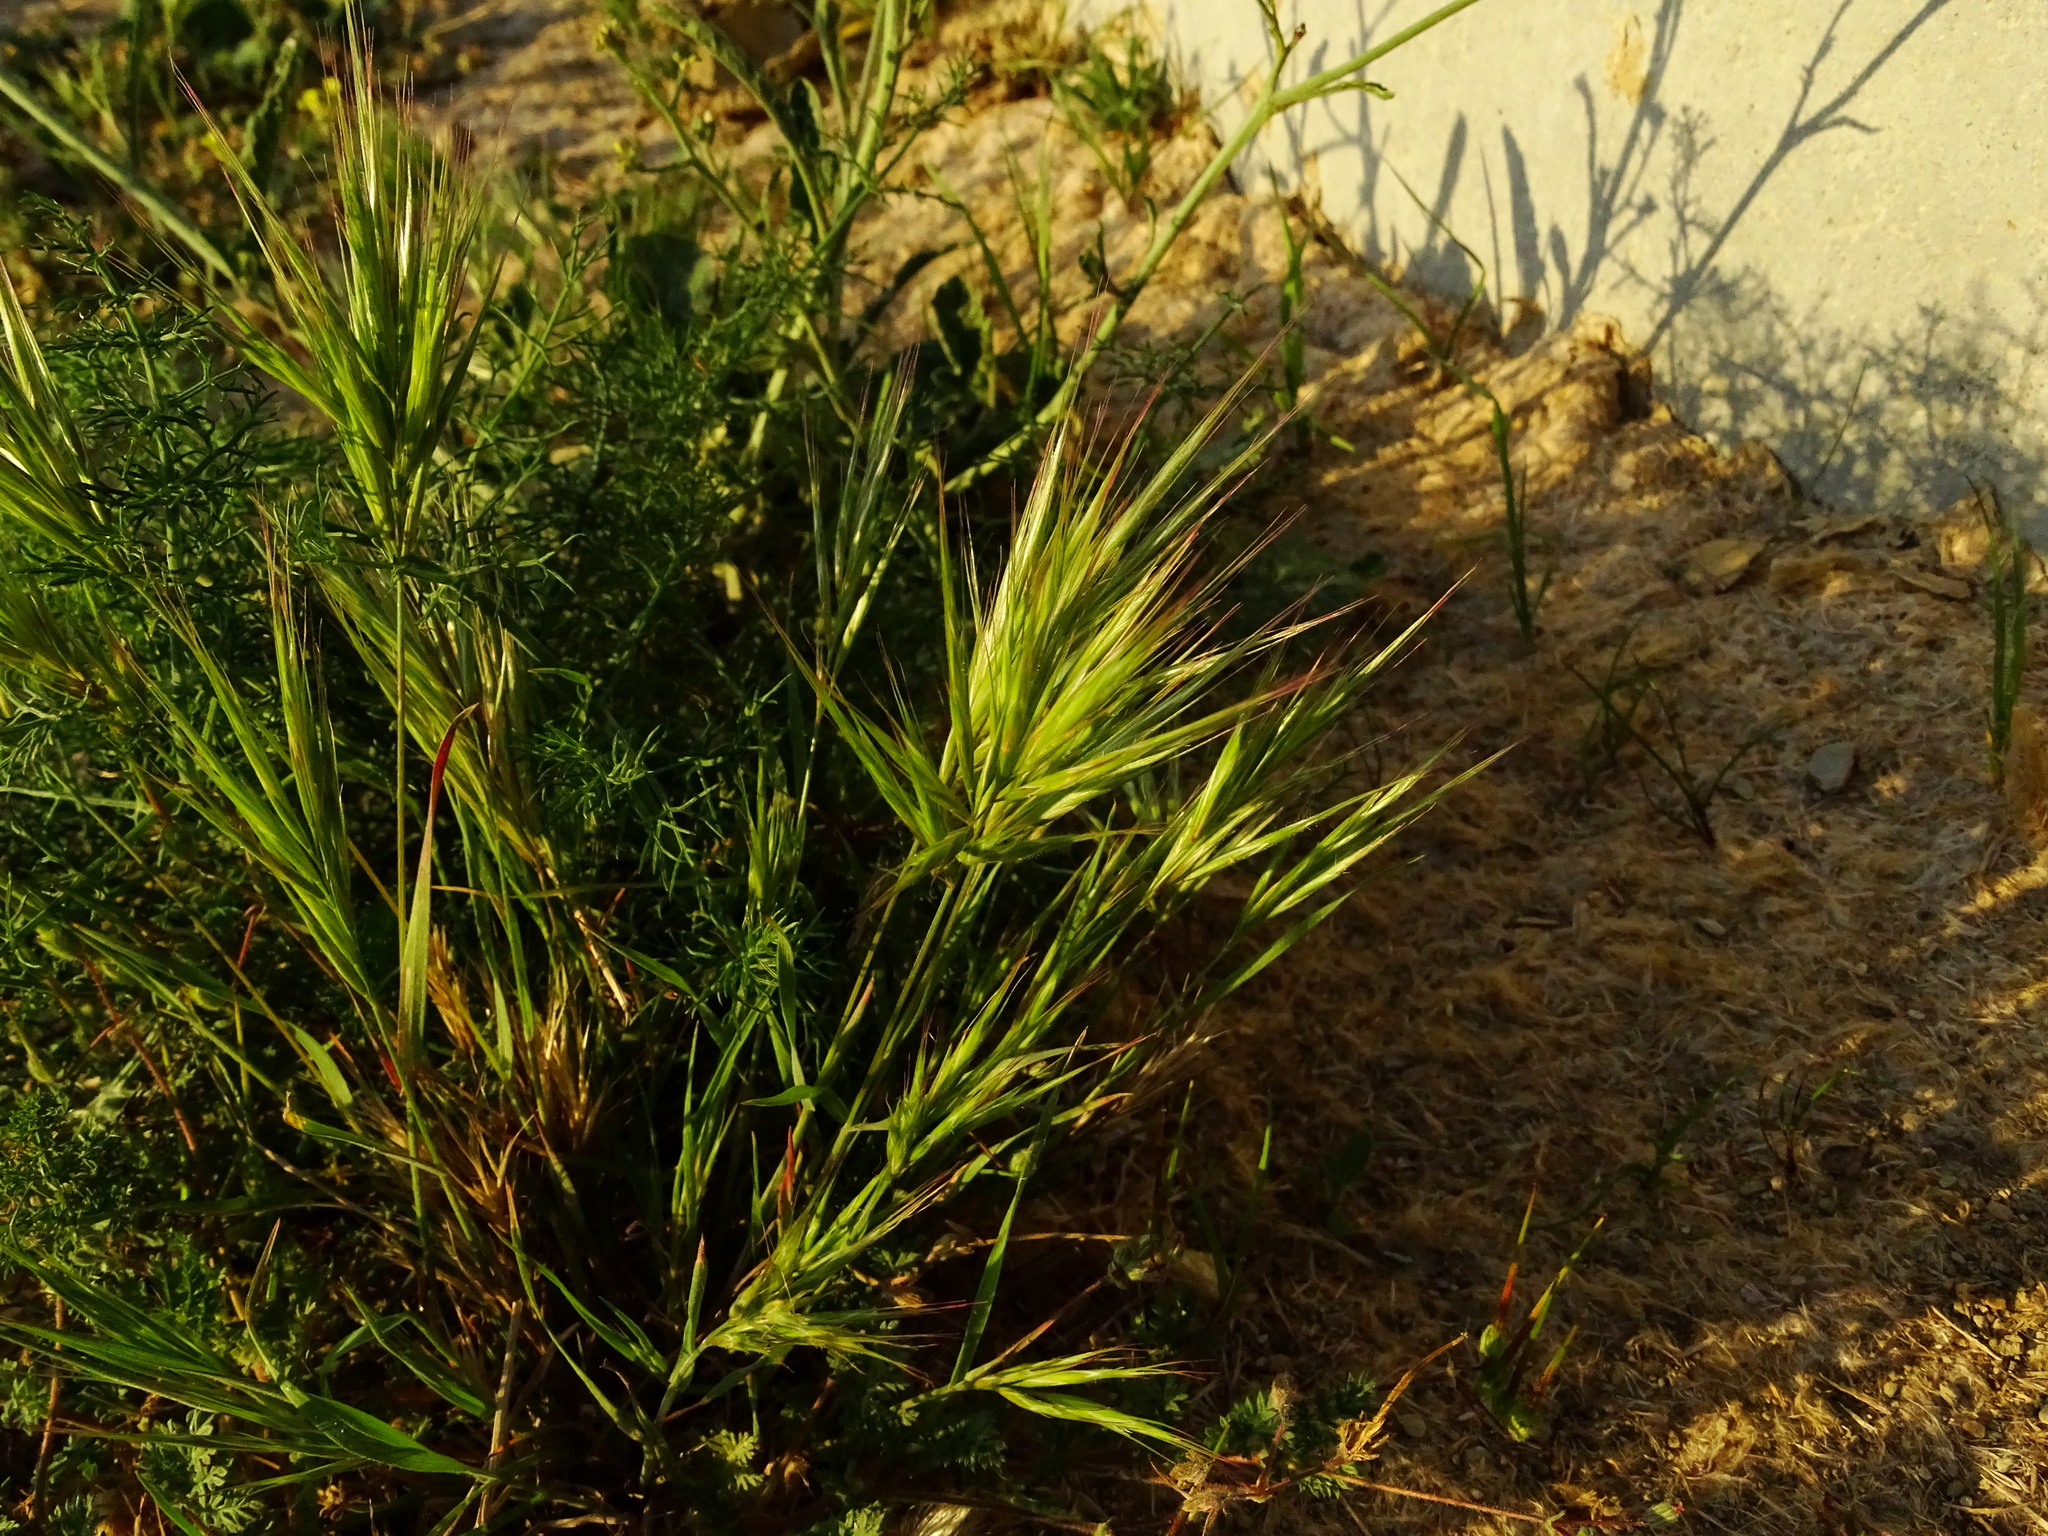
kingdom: Plantae
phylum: Tracheophyta
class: Liliopsida
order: Poales
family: Poaceae
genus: Bromus
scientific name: Bromus madritensis
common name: Compact brome
